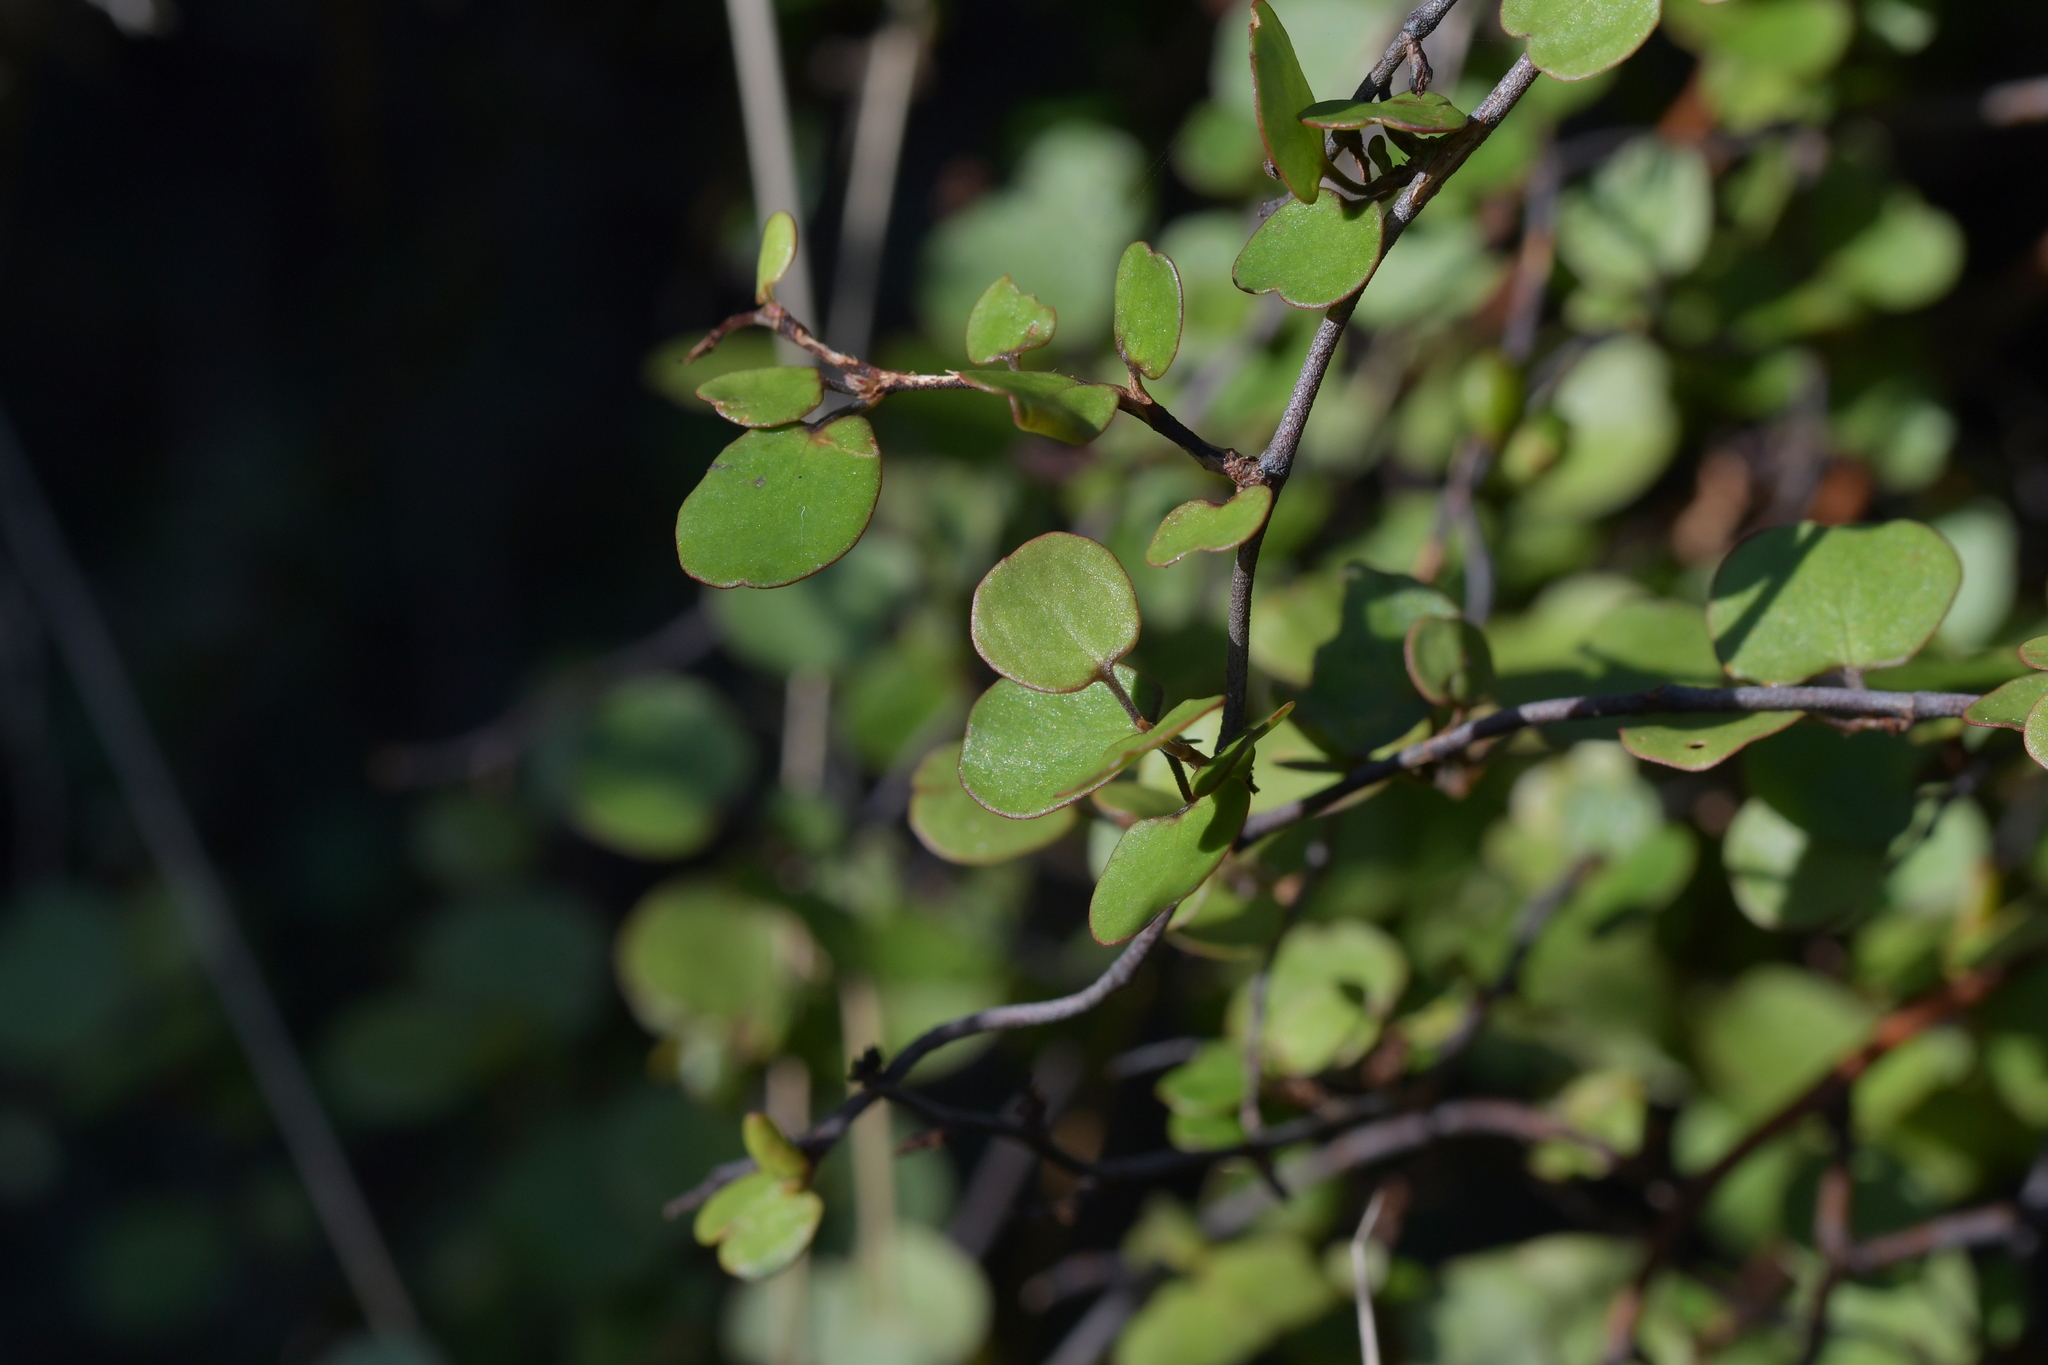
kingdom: Plantae
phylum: Tracheophyta
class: Magnoliopsida
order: Caryophyllales
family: Polygonaceae
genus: Muehlenbeckia
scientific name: Muehlenbeckia complexa
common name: Wireplant
